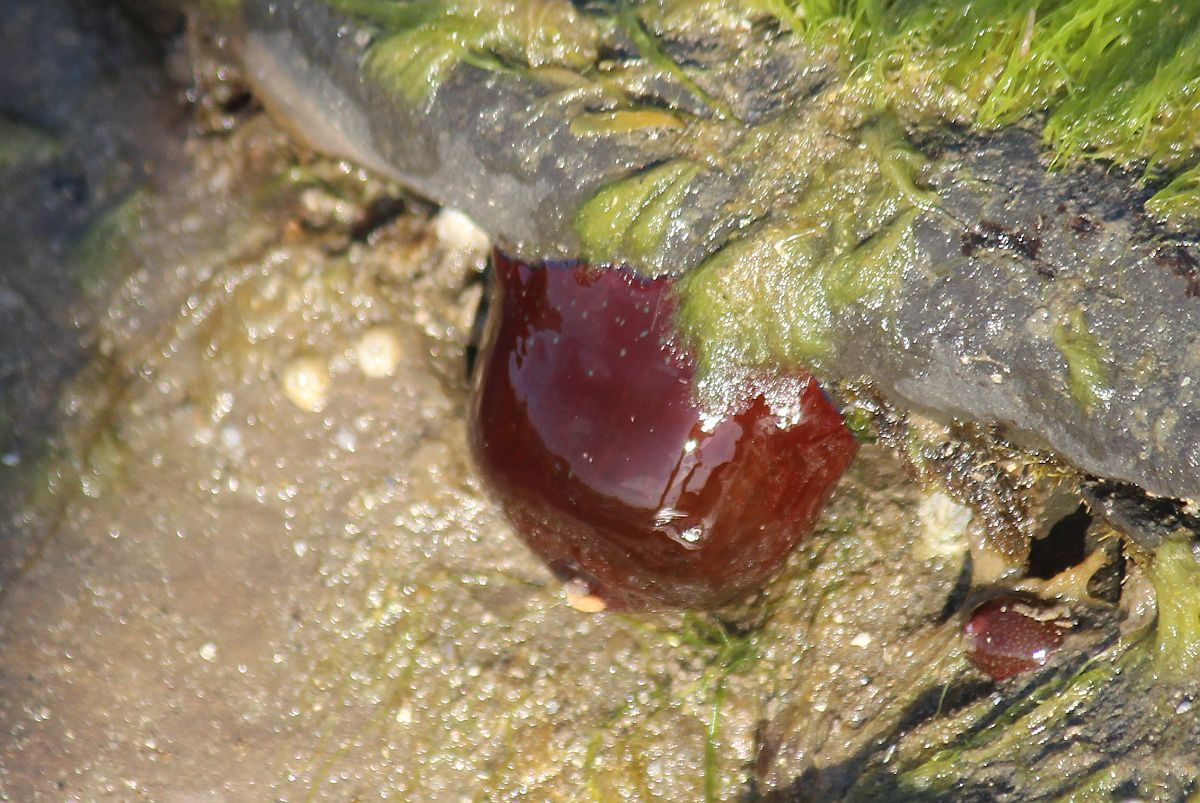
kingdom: Animalia
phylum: Cnidaria
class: Anthozoa
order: Actiniaria
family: Actiniidae
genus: Actinia
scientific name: Actinia equina
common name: Beadlet anemone
